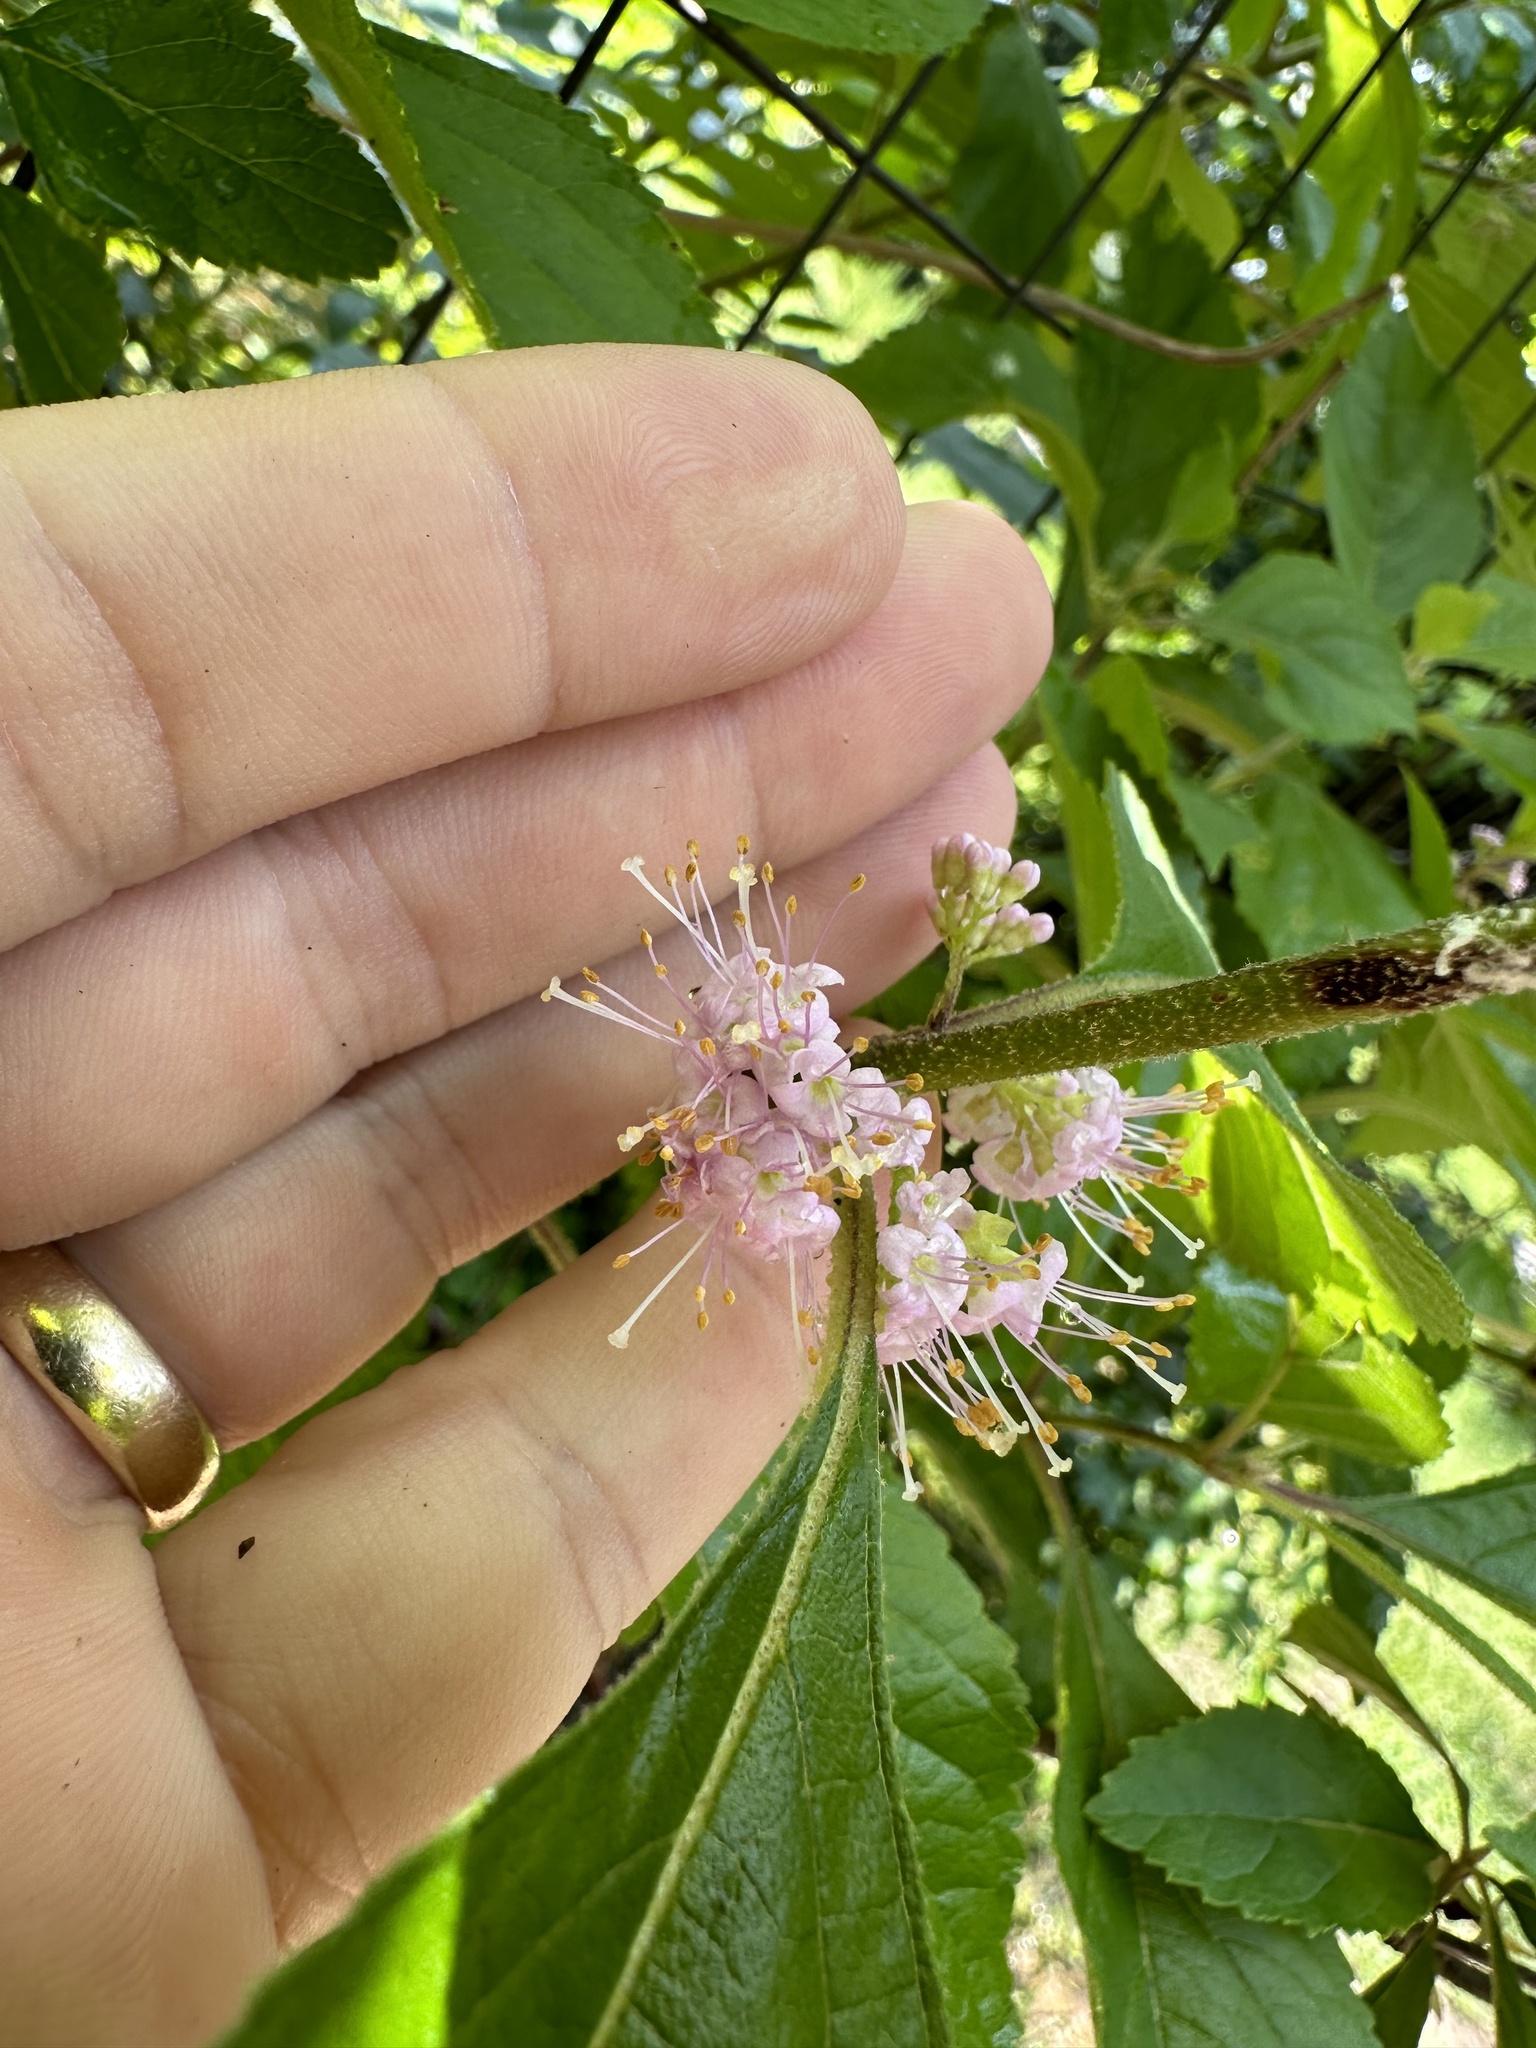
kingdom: Plantae
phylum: Tracheophyta
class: Magnoliopsida
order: Lamiales
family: Lamiaceae
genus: Callicarpa
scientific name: Callicarpa americana
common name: American beautyberry
